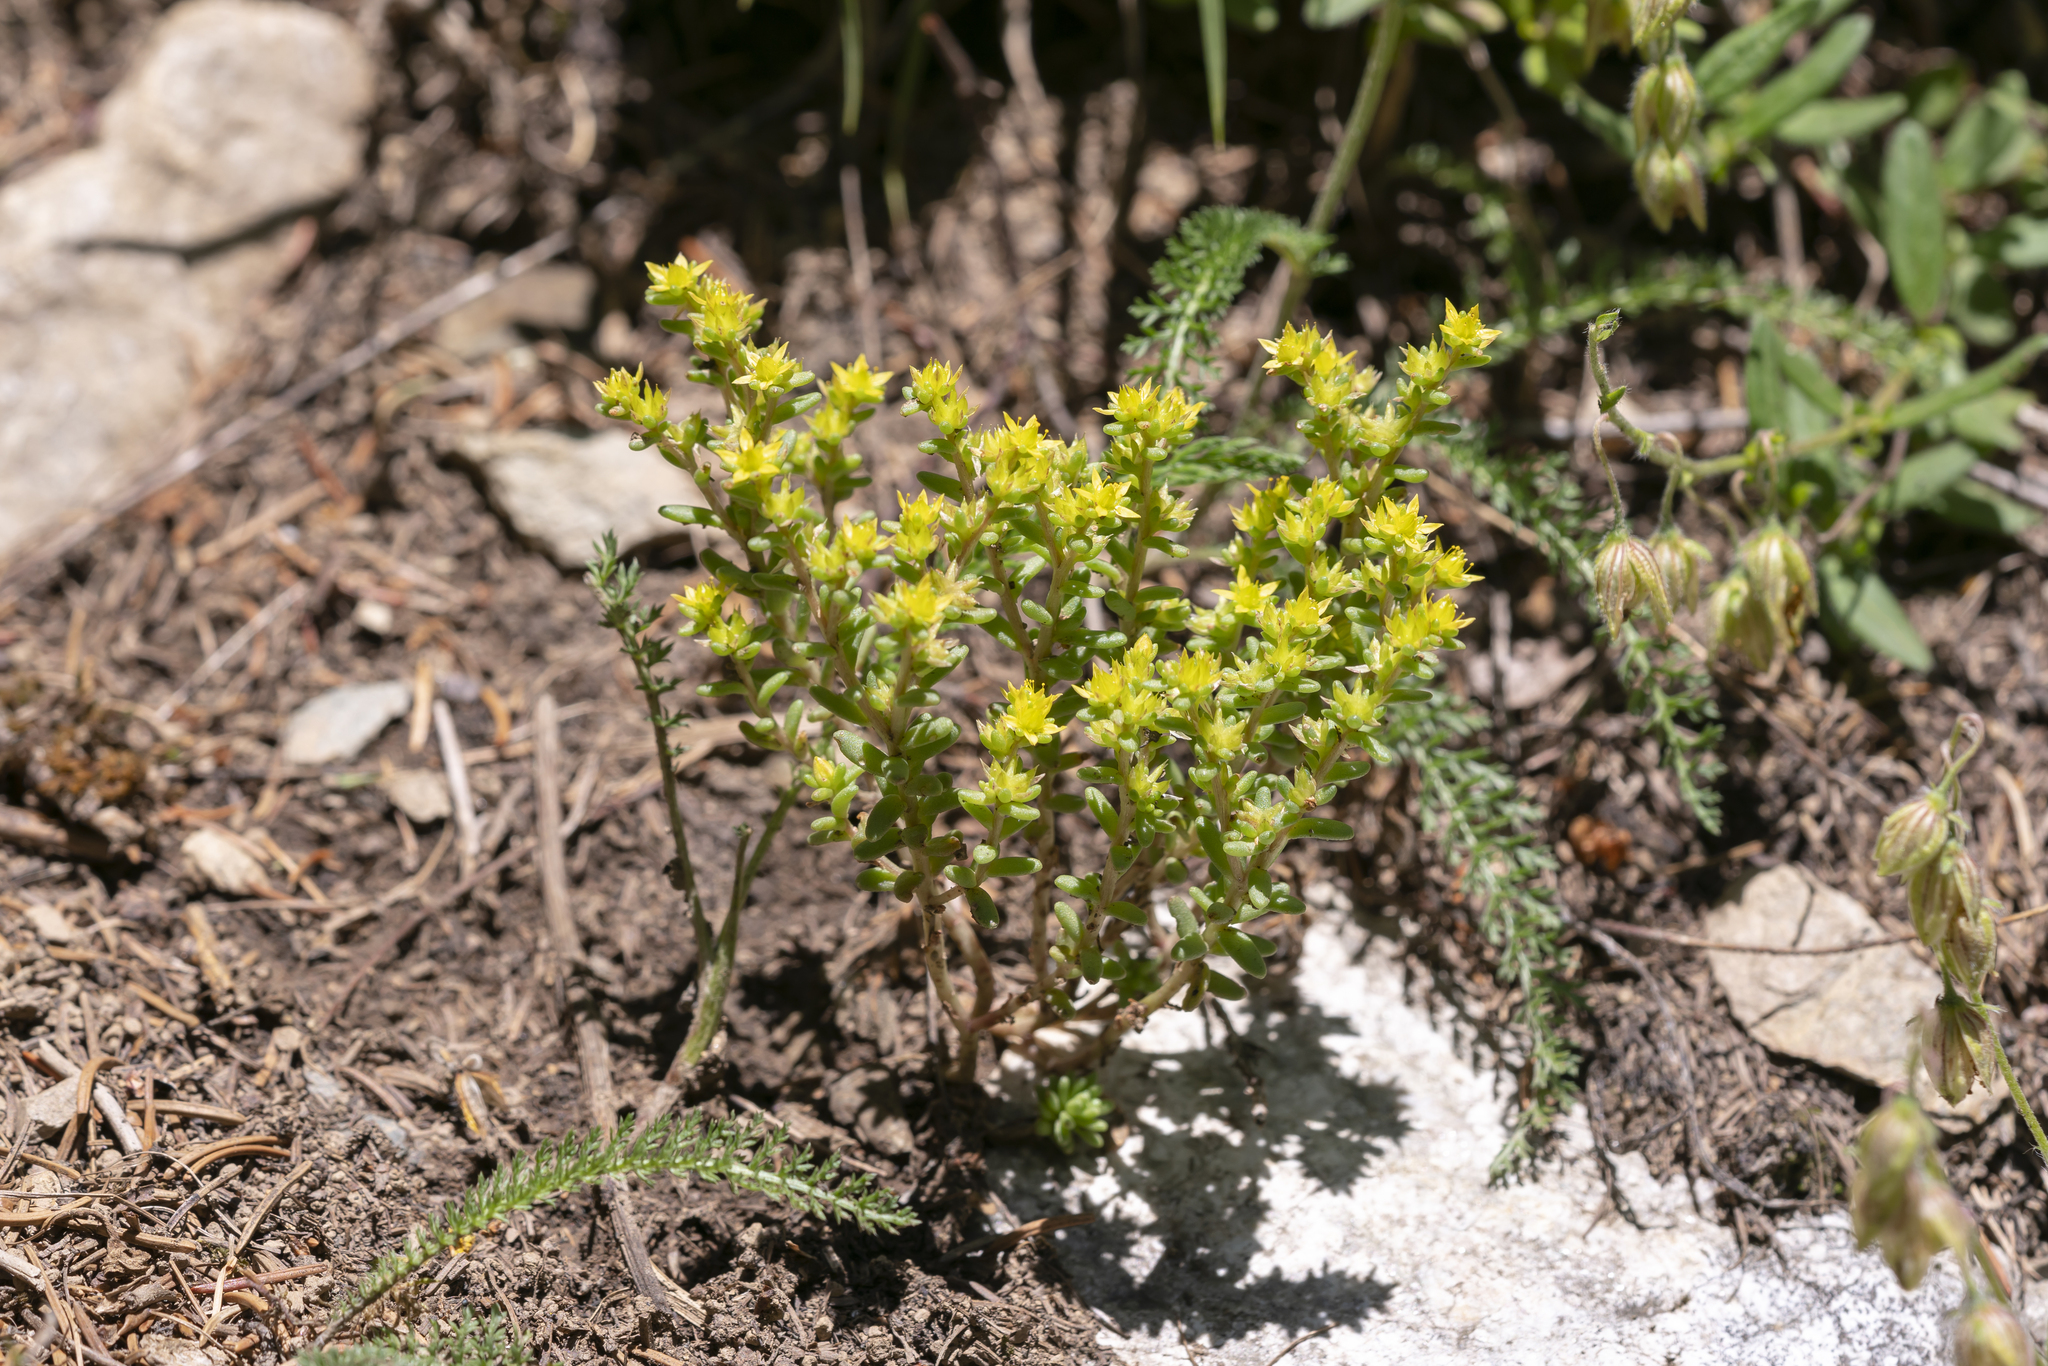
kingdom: Plantae
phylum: Tracheophyta
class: Magnoliopsida
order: Saxifragales
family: Crassulaceae
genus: Sedum
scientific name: Sedum annuum
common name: Annual stonecrop
